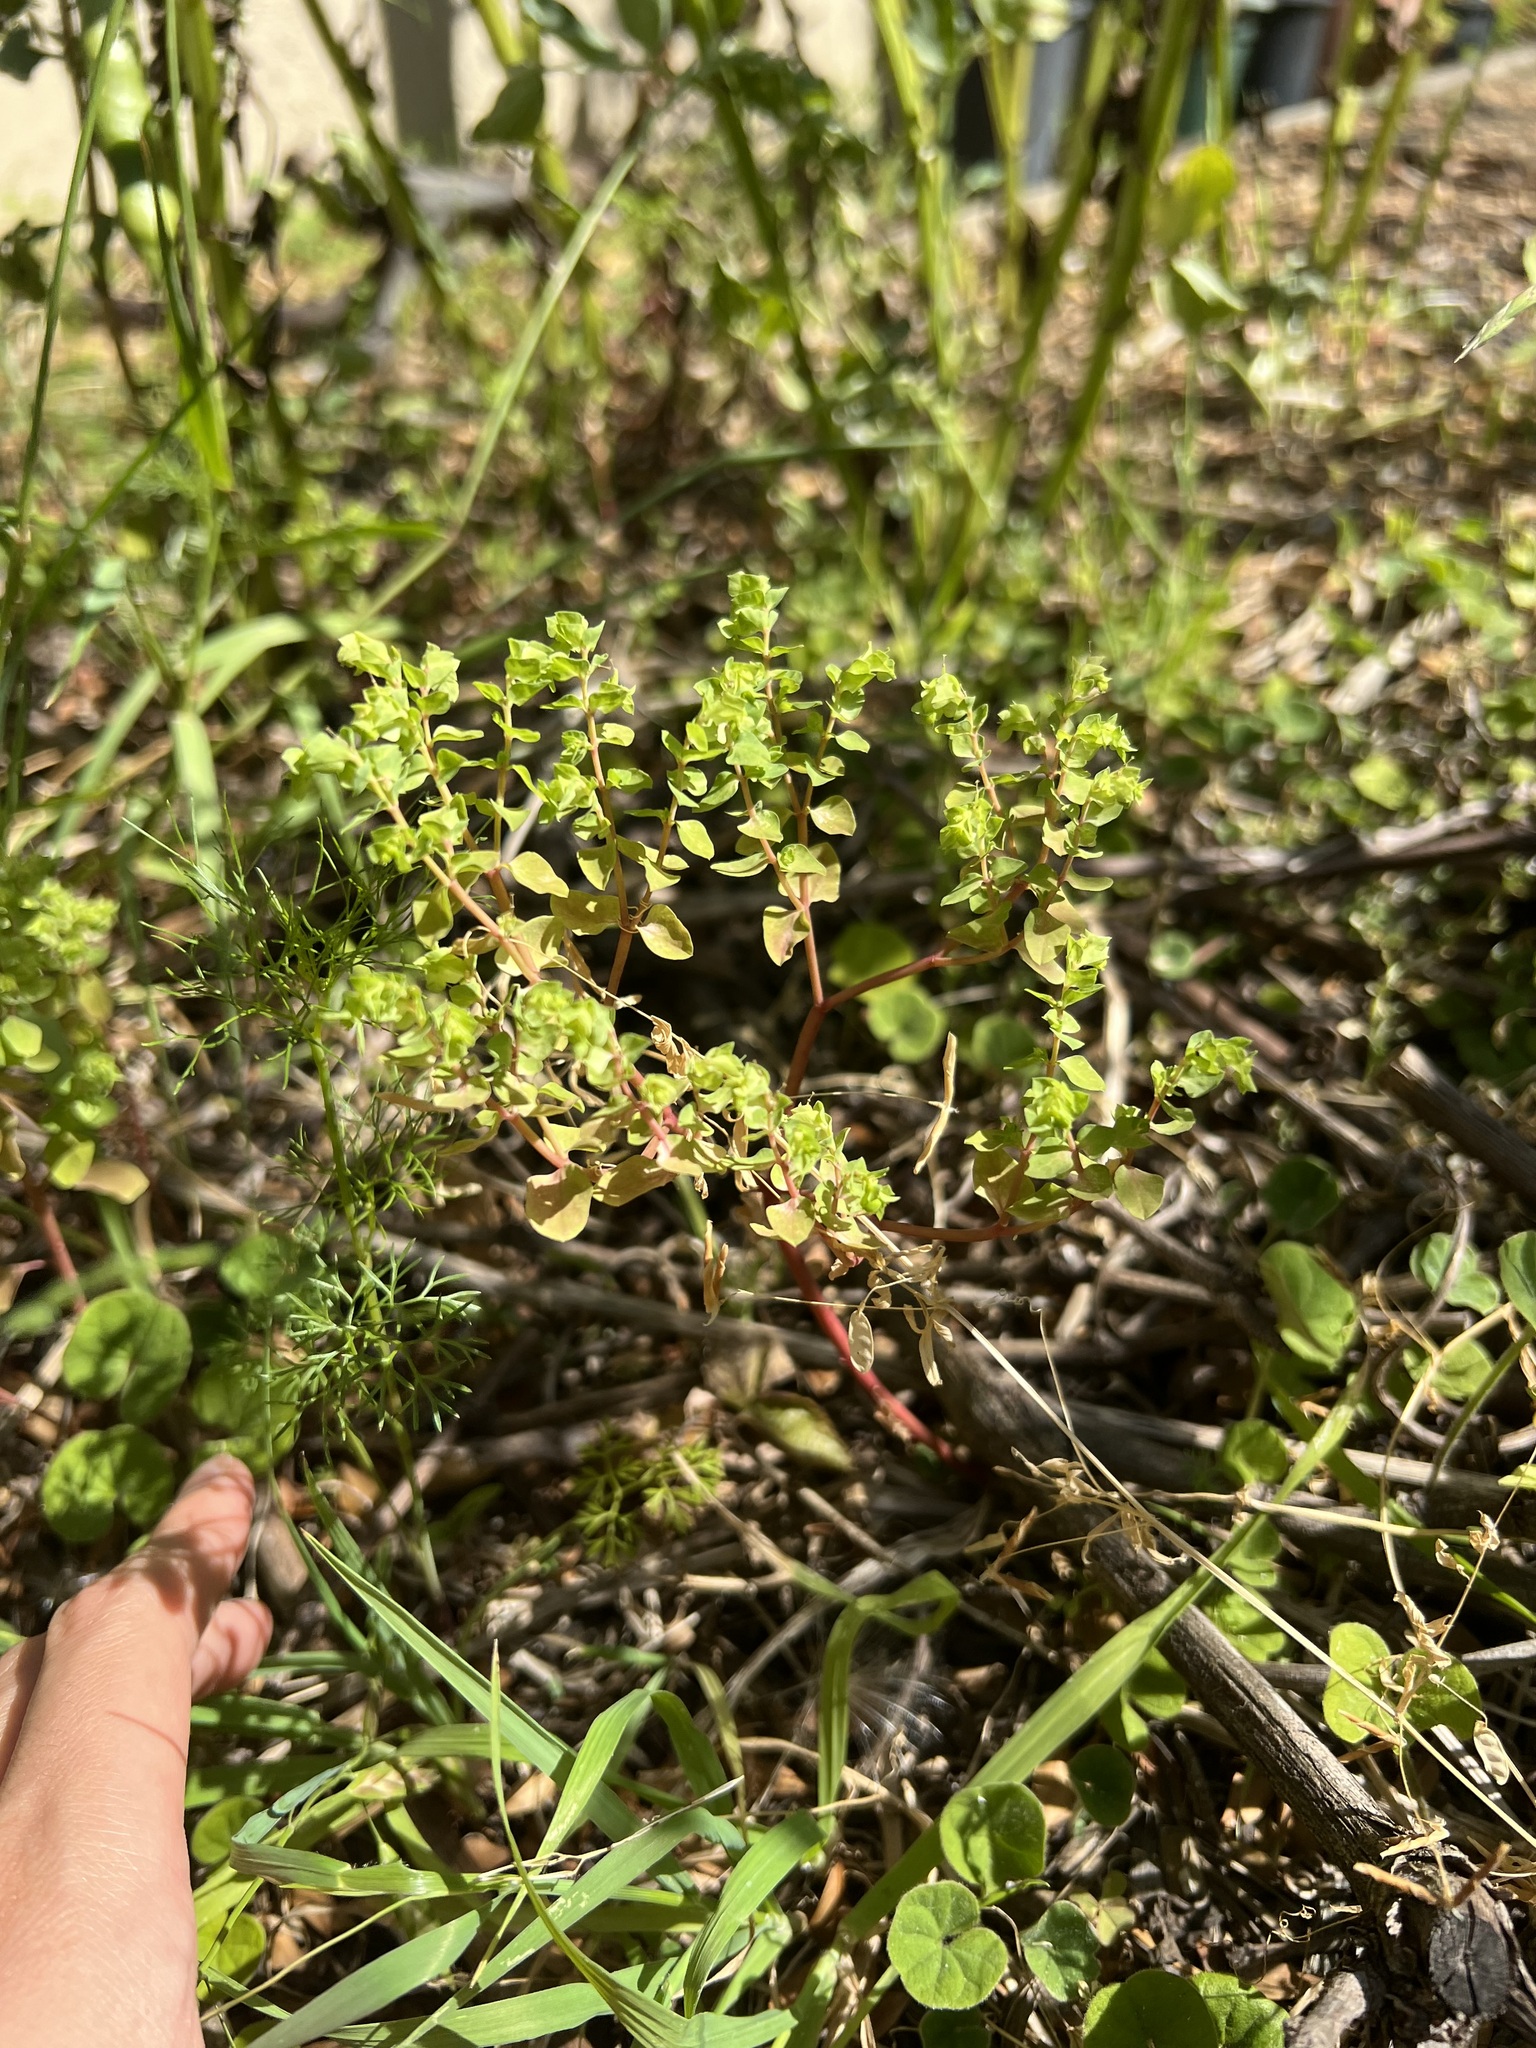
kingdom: Plantae
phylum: Tracheophyta
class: Magnoliopsida
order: Malpighiales
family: Euphorbiaceae
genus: Euphorbia
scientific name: Euphorbia peplus
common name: Petty spurge
